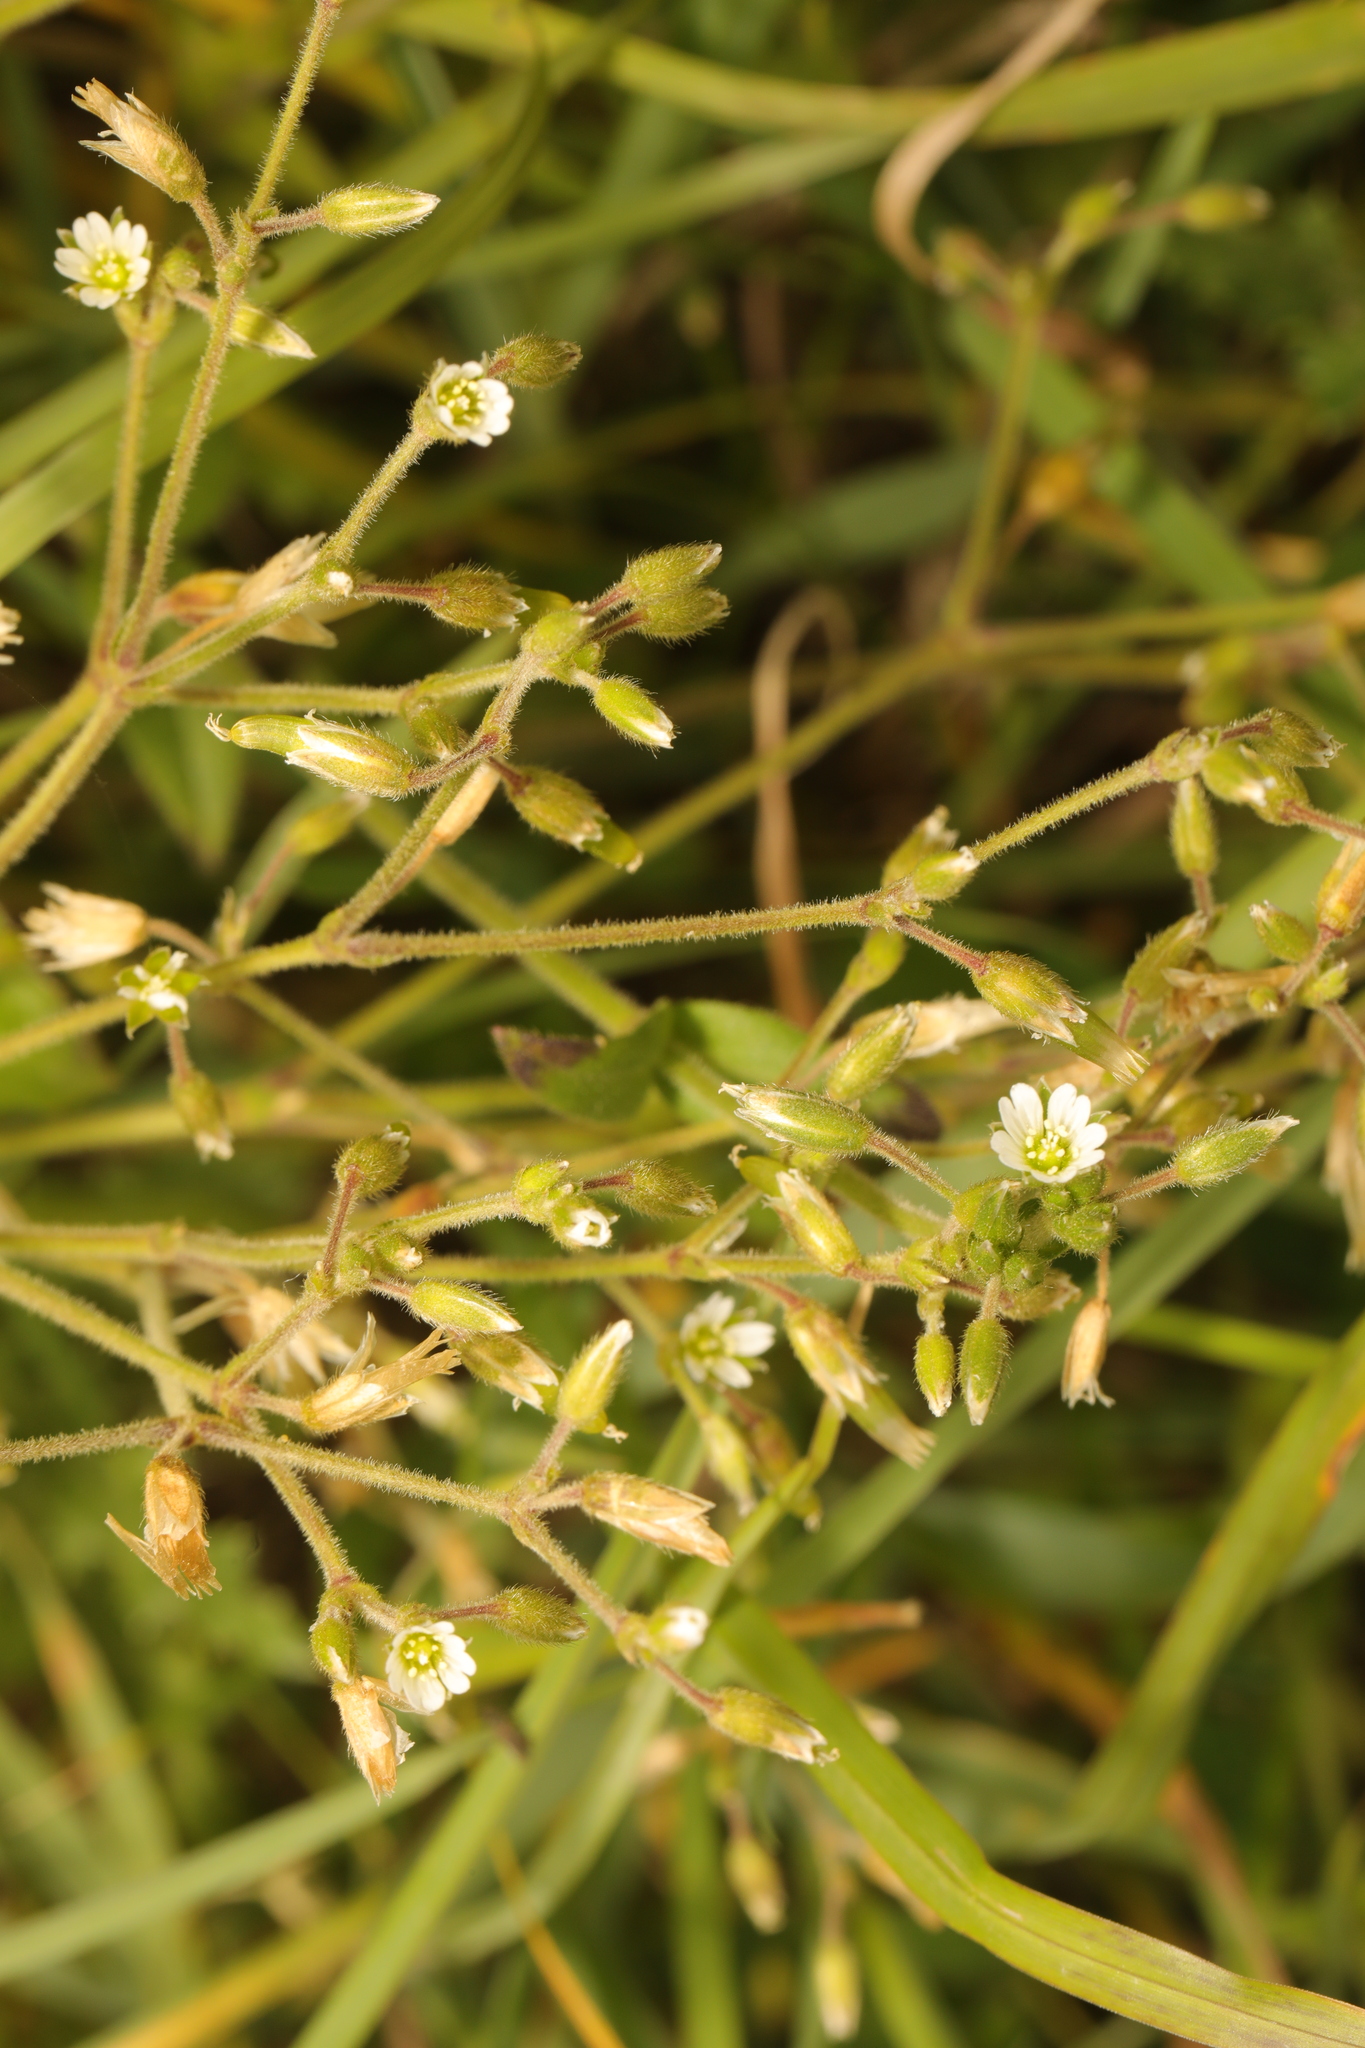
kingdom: Plantae
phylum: Tracheophyta
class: Magnoliopsida
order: Caryophyllales
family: Caryophyllaceae
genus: Cerastium
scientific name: Cerastium fontanum
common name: Common mouse-ear
